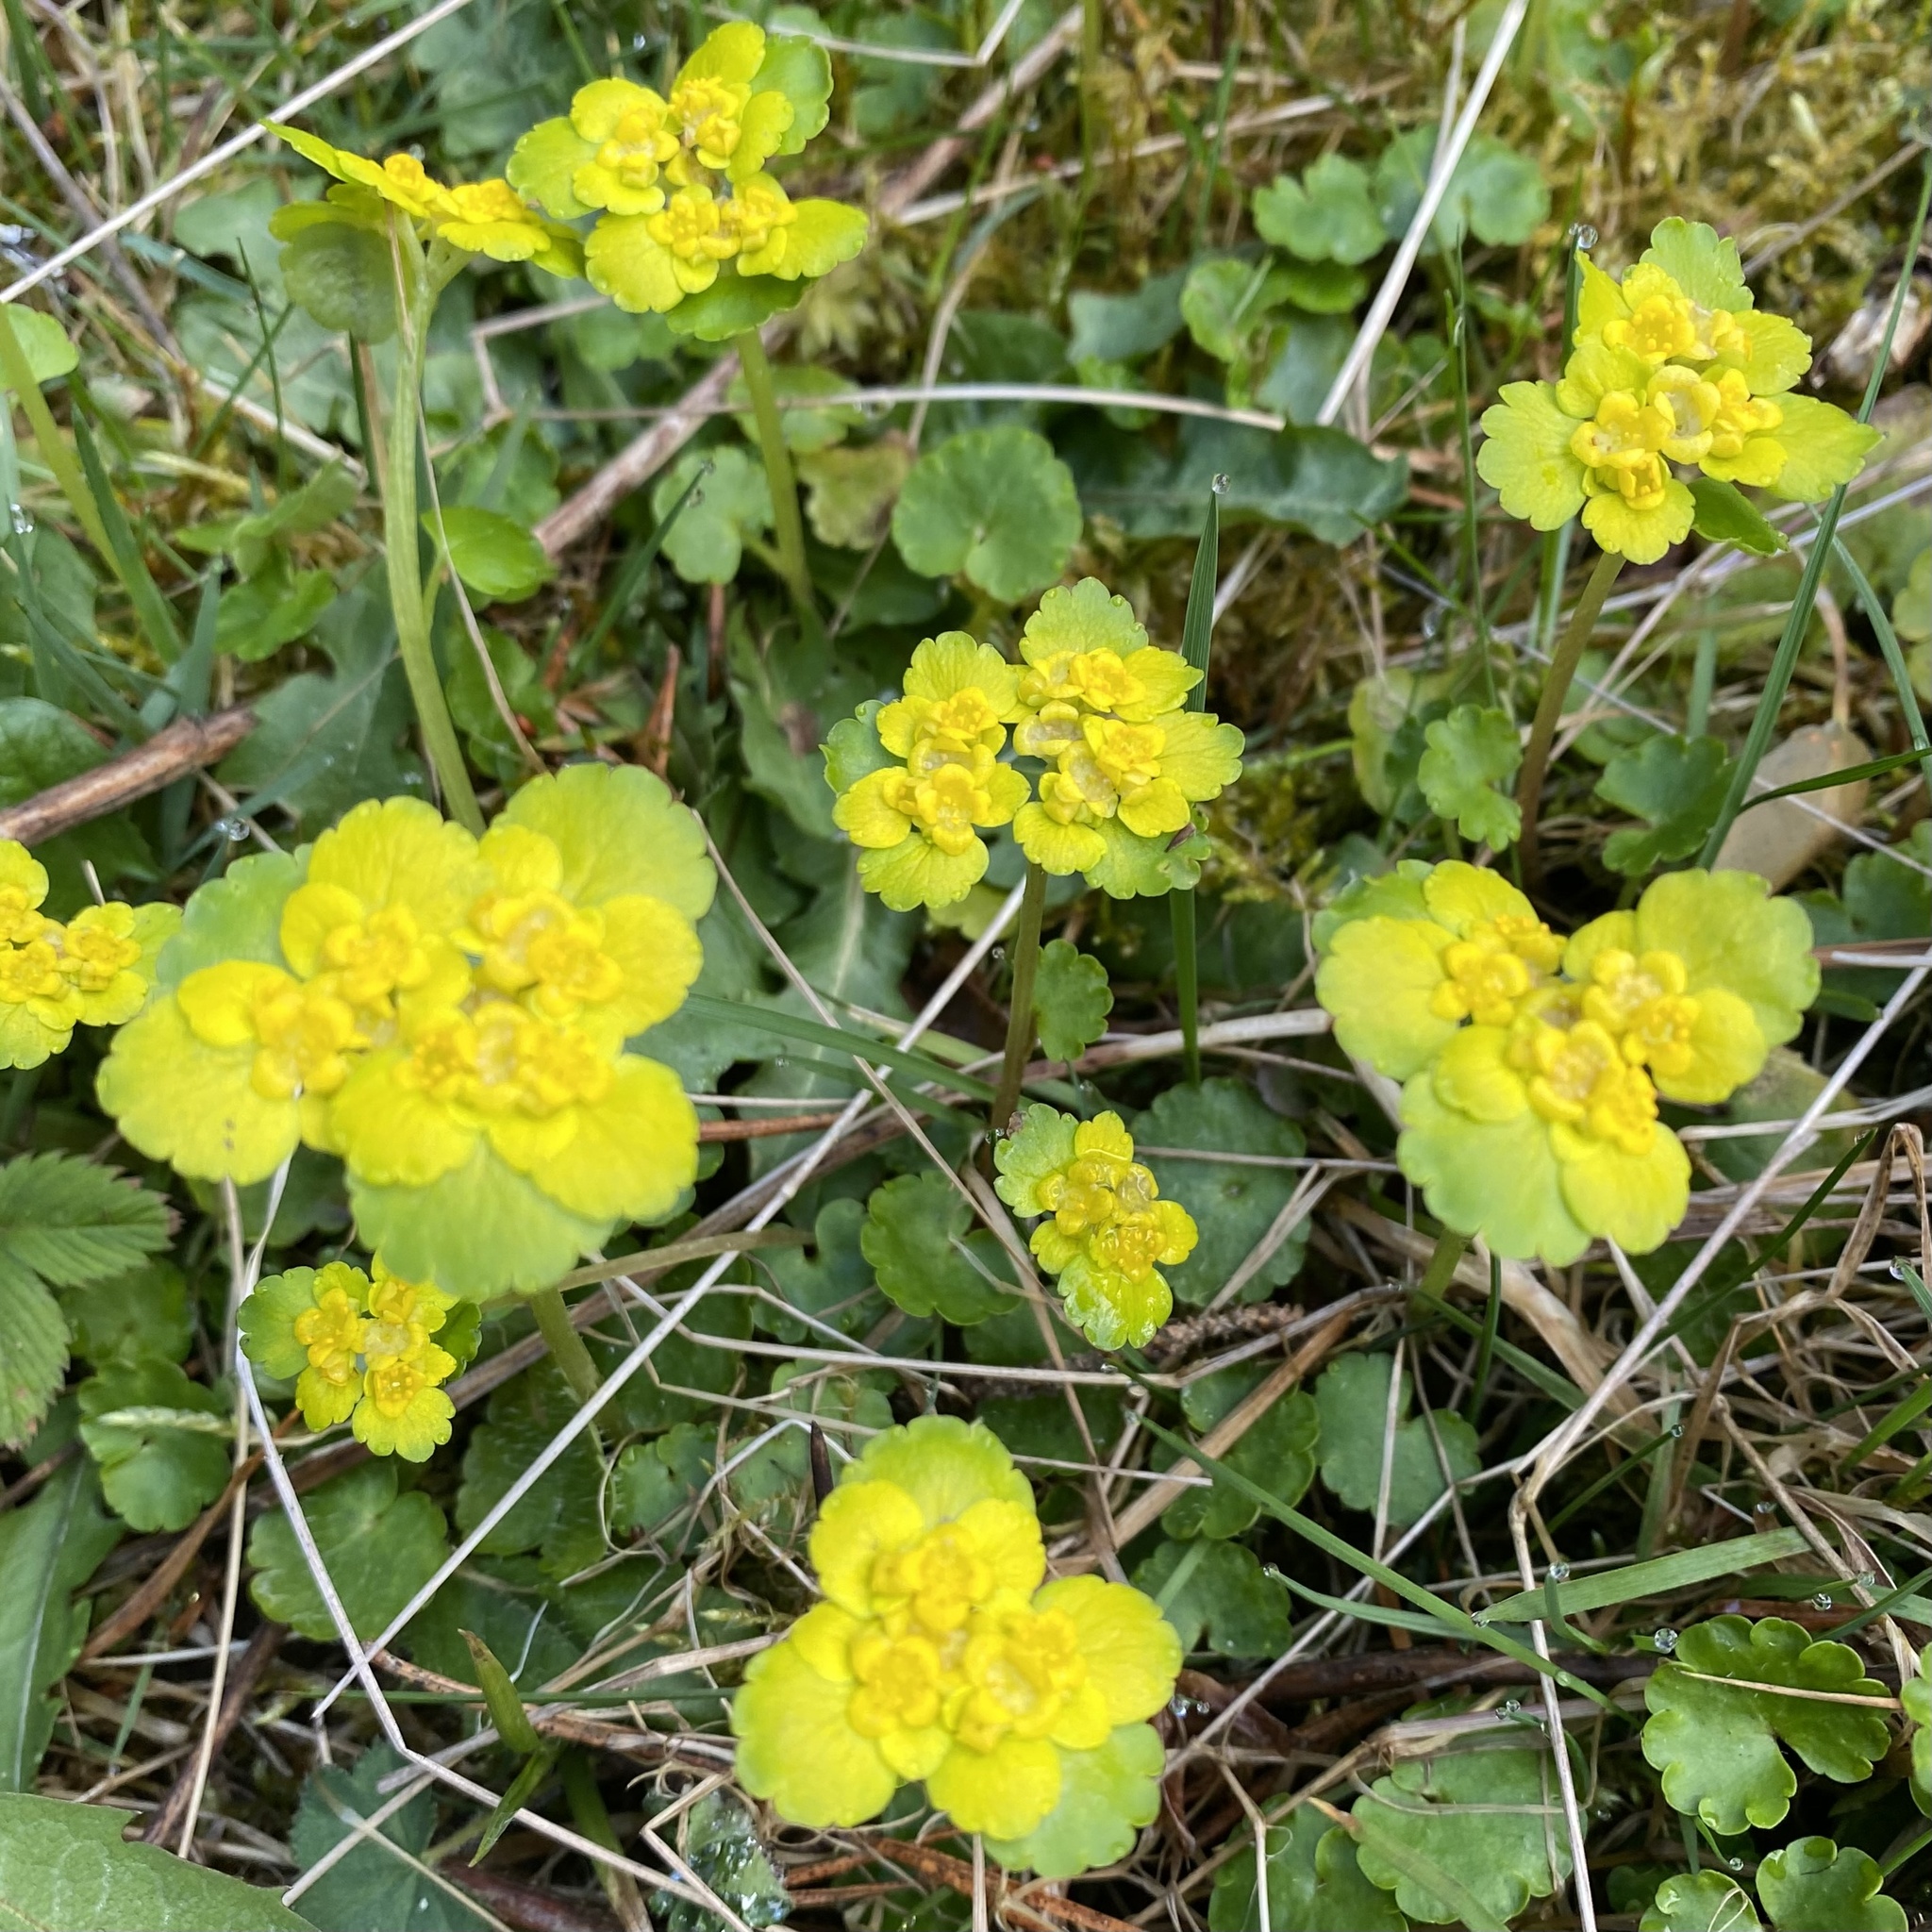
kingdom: Plantae
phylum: Tracheophyta
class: Magnoliopsida
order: Saxifragales
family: Saxifragaceae
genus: Chrysosplenium
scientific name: Chrysosplenium alternifolium
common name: Alternate-leaved golden-saxifrage
